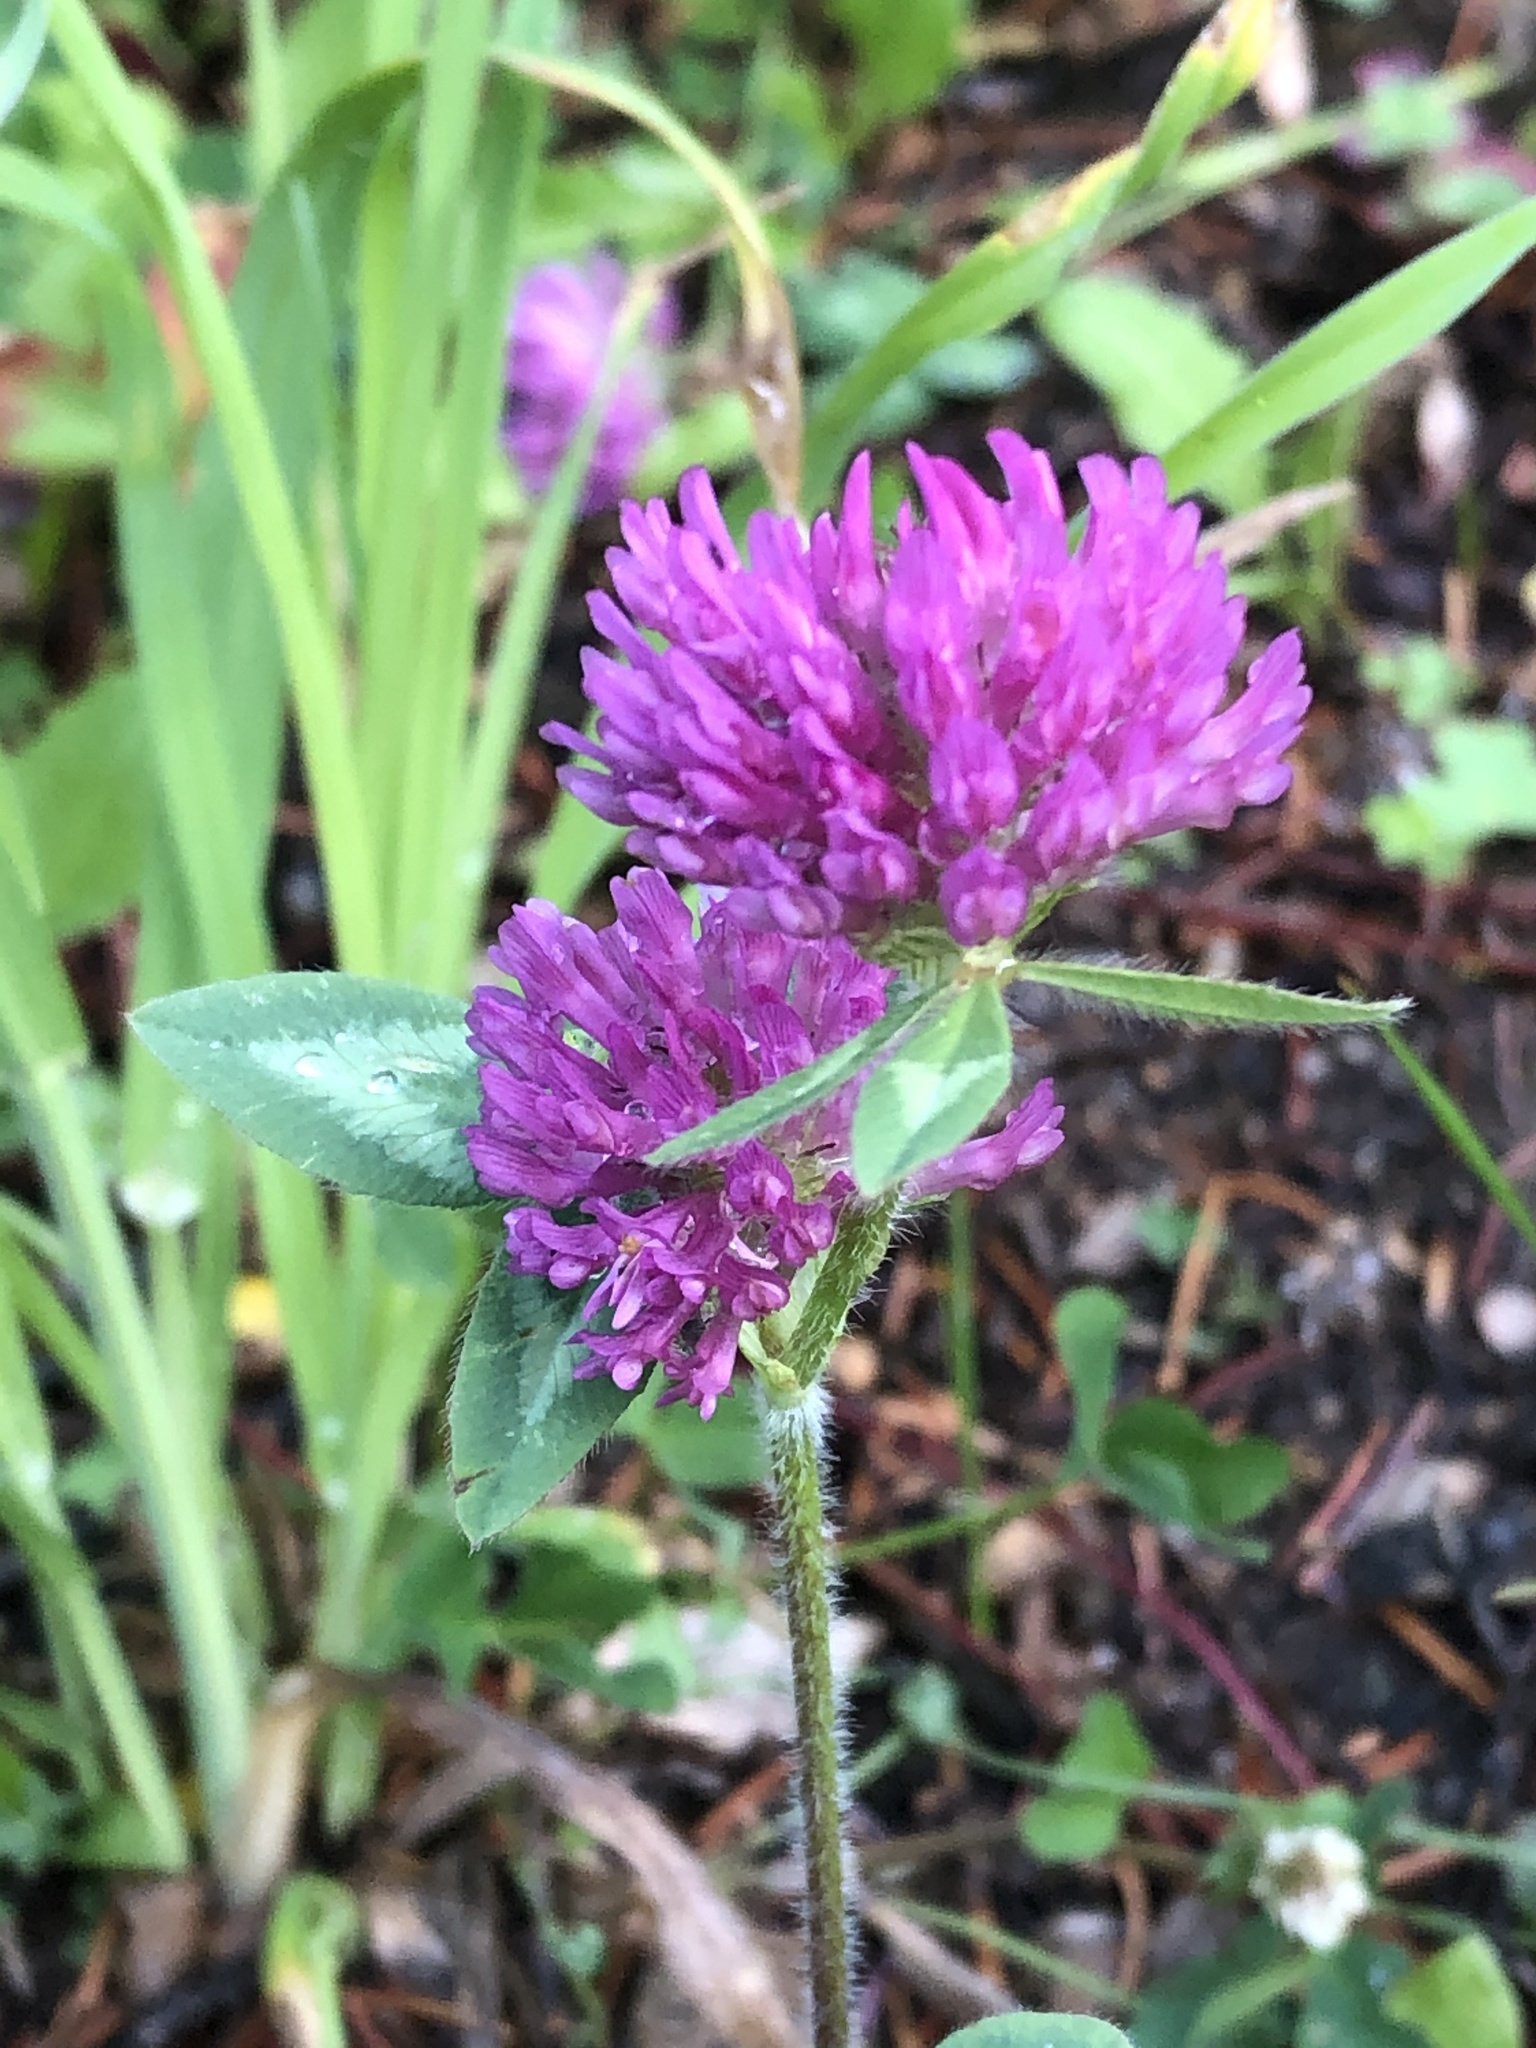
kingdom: Plantae
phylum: Tracheophyta
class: Magnoliopsida
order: Fabales
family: Fabaceae
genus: Trifolium
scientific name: Trifolium pratense
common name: Red clover
